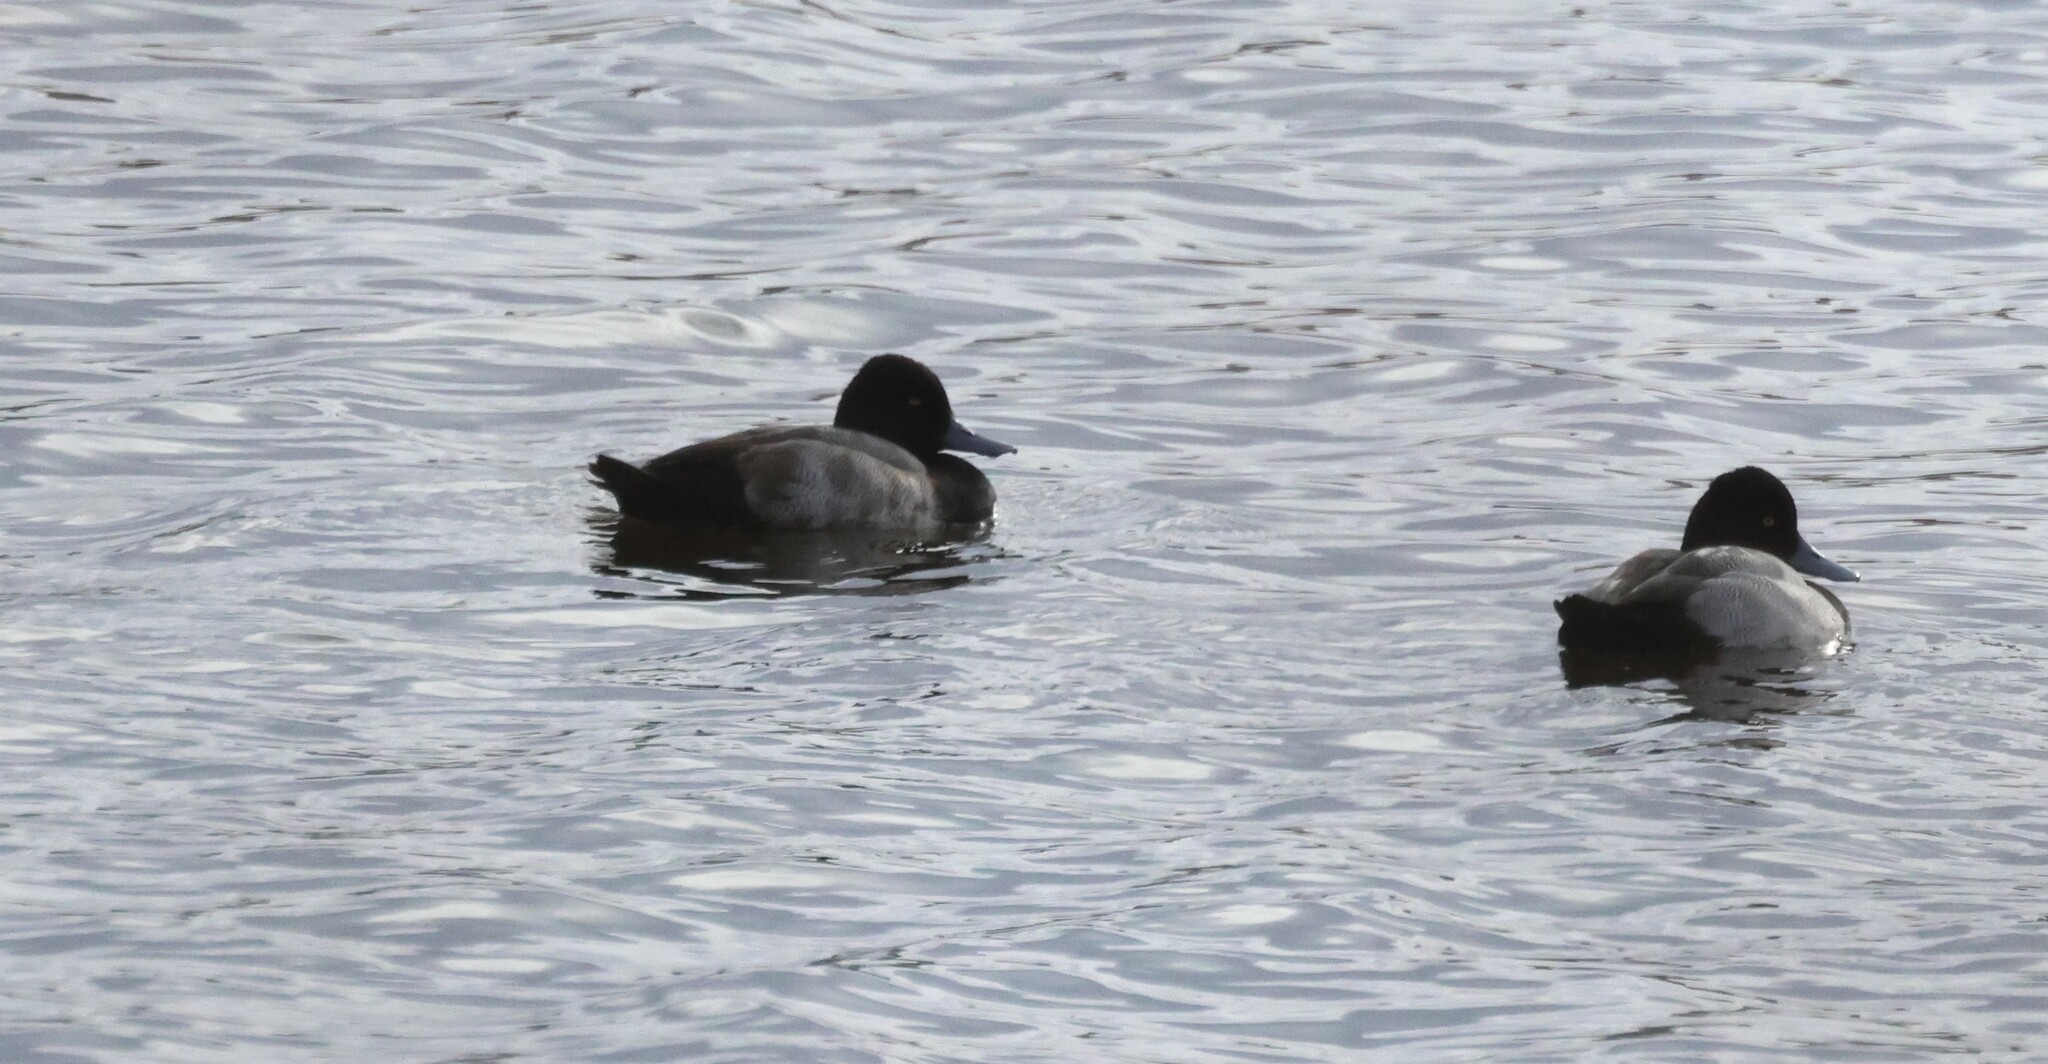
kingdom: Animalia
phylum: Chordata
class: Aves
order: Anseriformes
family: Anatidae
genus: Aythya
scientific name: Aythya affinis
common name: Lesser scaup
